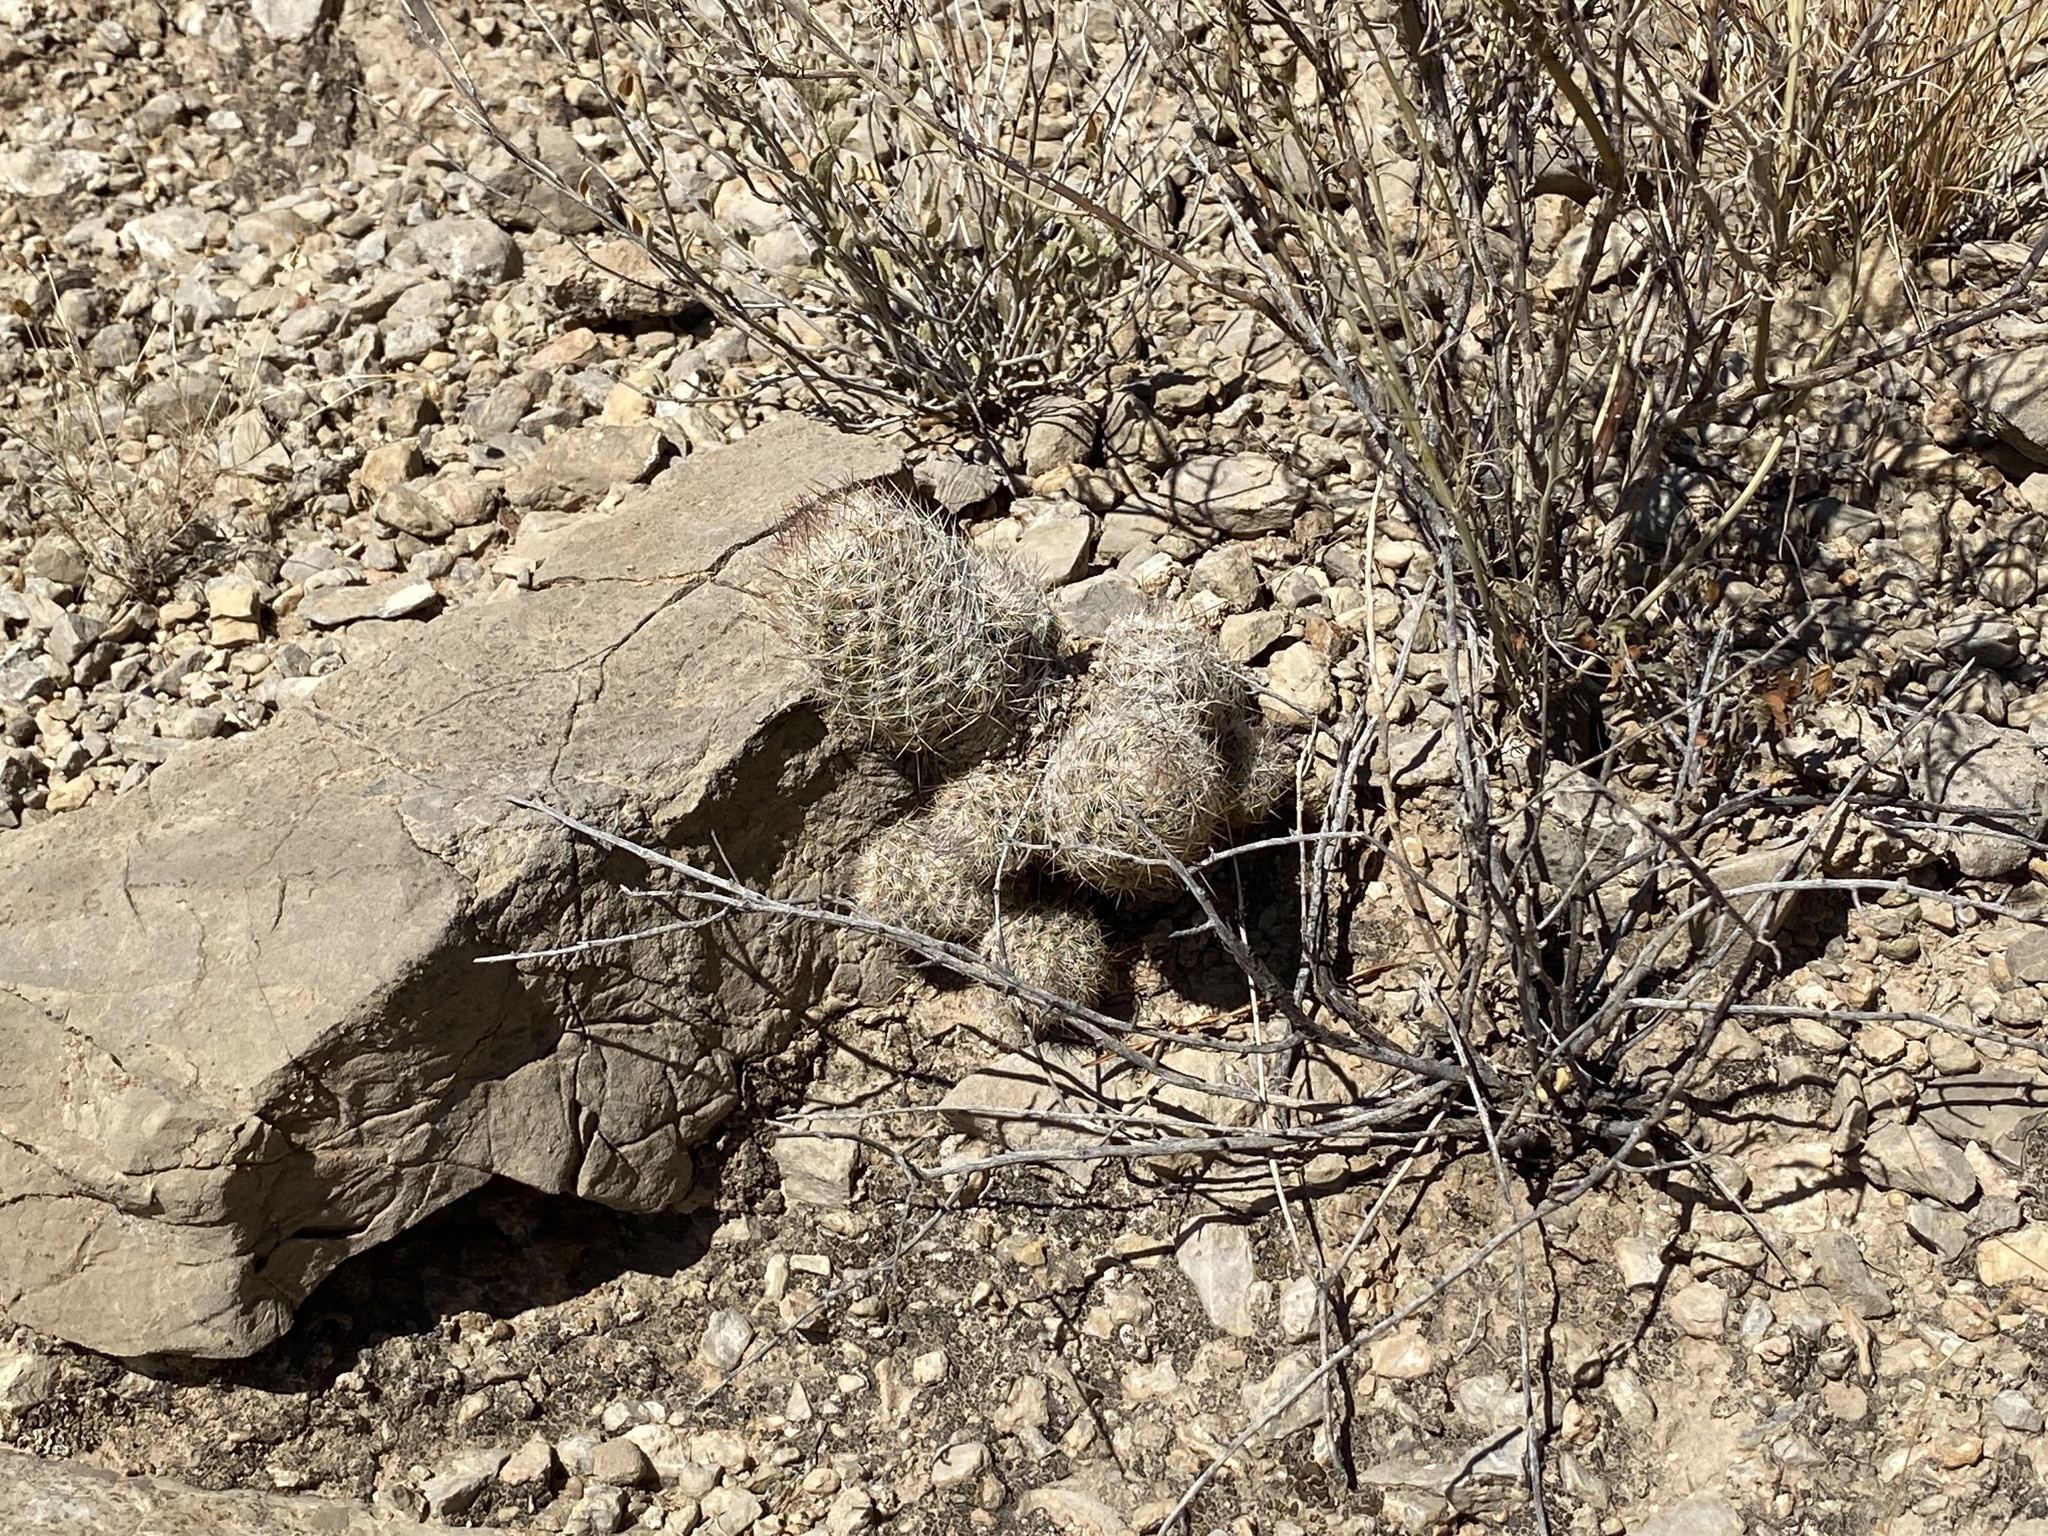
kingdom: Plantae
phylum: Tracheophyta
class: Magnoliopsida
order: Caryophyllales
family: Cactaceae
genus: Pelecyphora
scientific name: Pelecyphora tuberculosa
